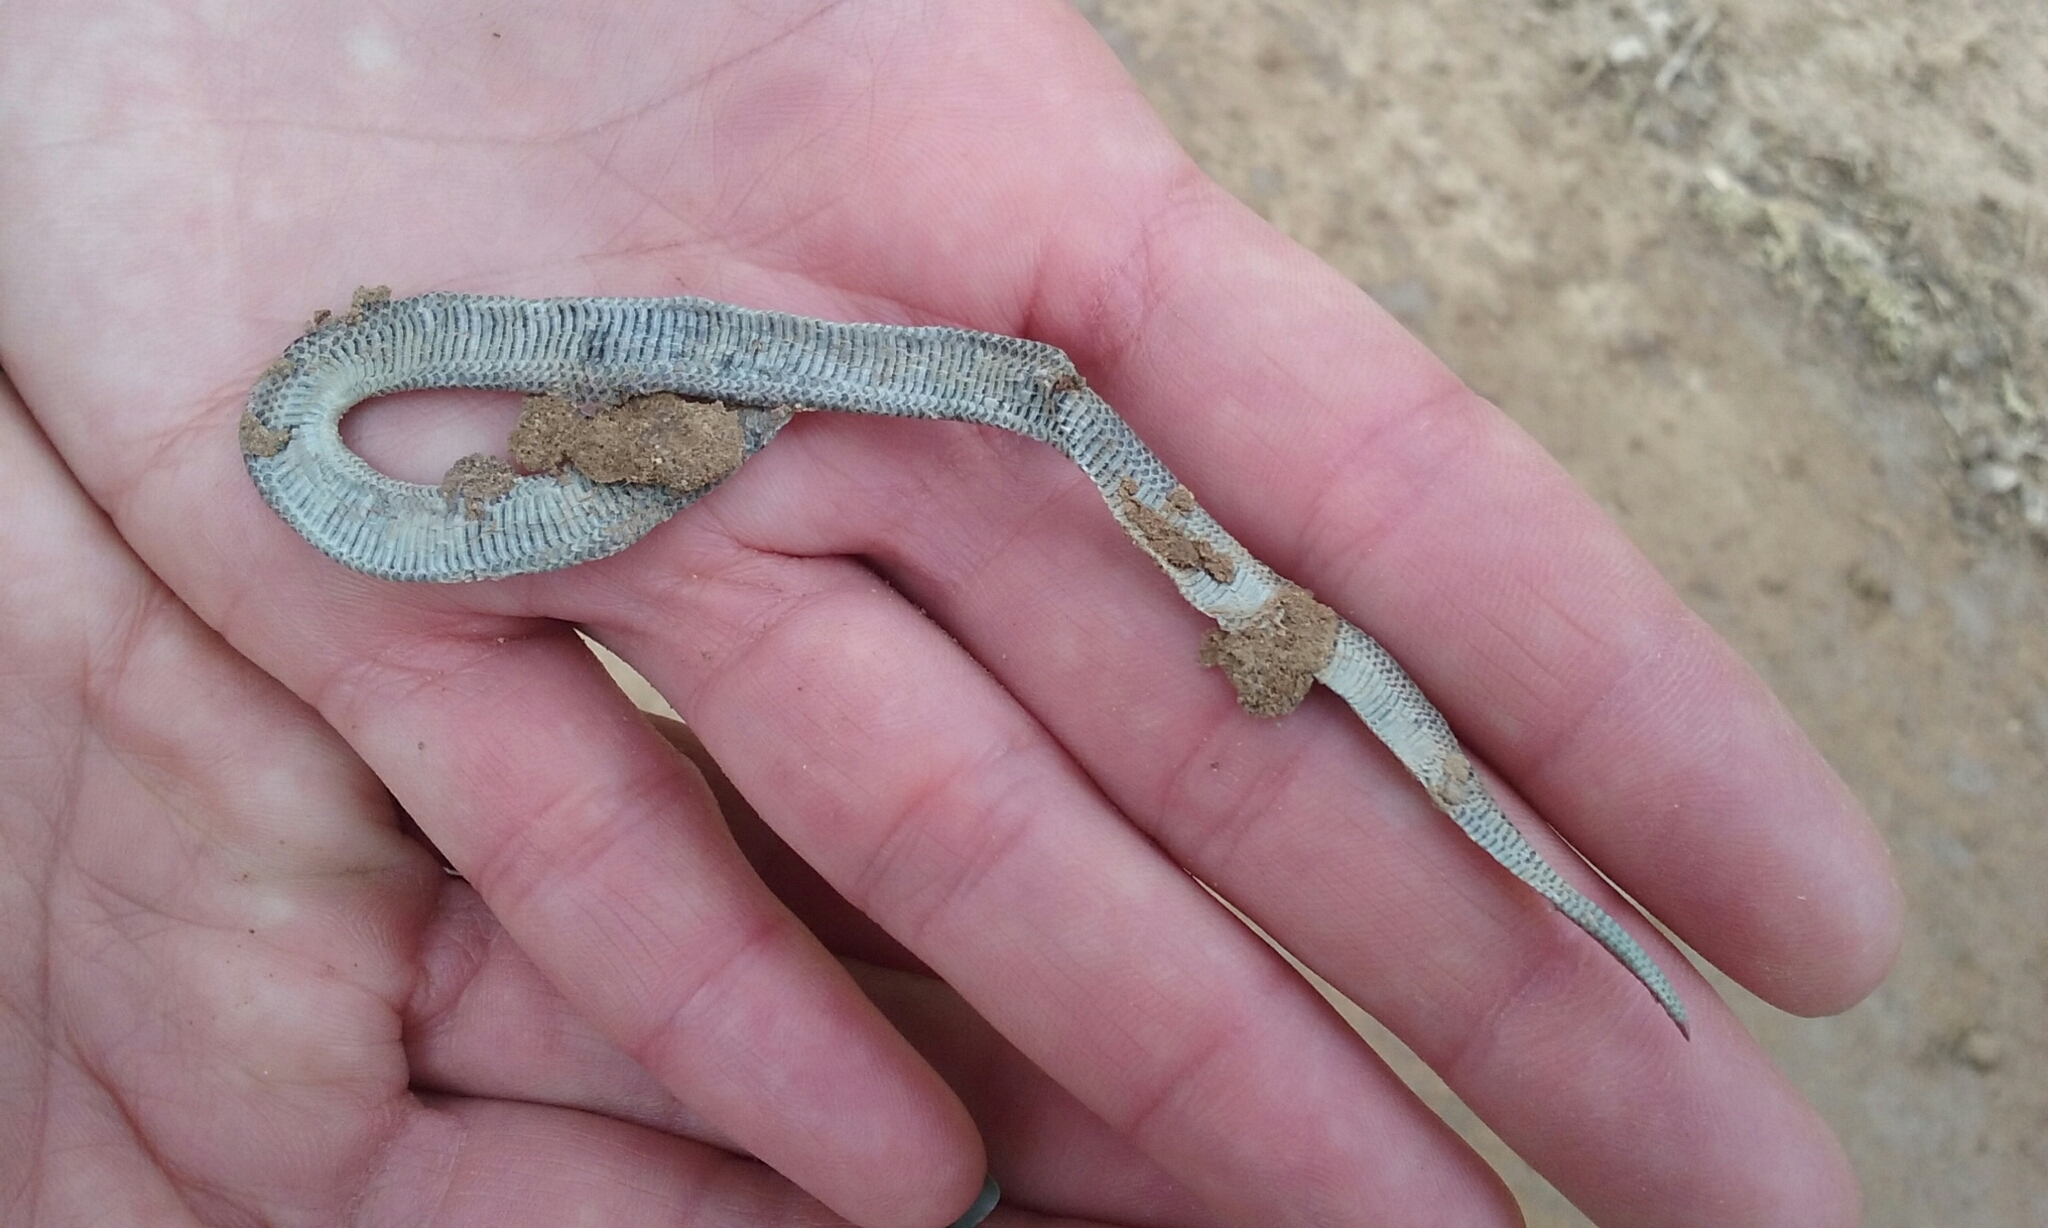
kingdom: Animalia
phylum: Chordata
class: Squamata
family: Colubridae
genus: Contia
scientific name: Contia tenuis
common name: Sharptail snake
